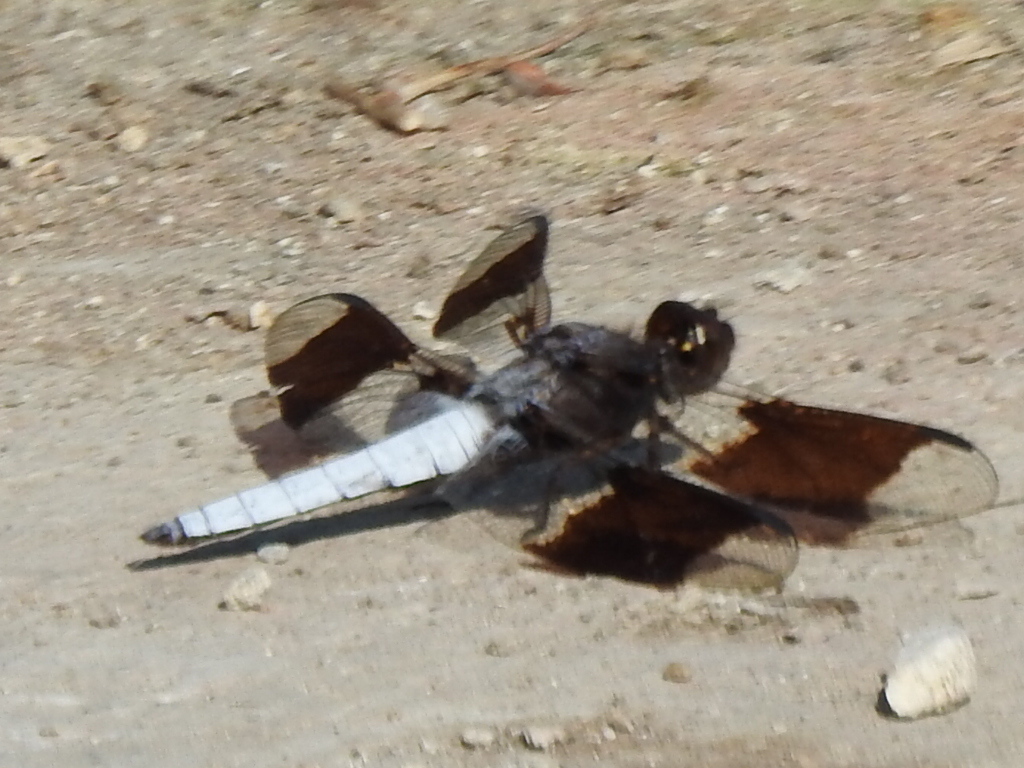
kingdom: Animalia
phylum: Arthropoda
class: Insecta
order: Odonata
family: Libellulidae
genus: Plathemis
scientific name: Plathemis lydia
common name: Common whitetail
